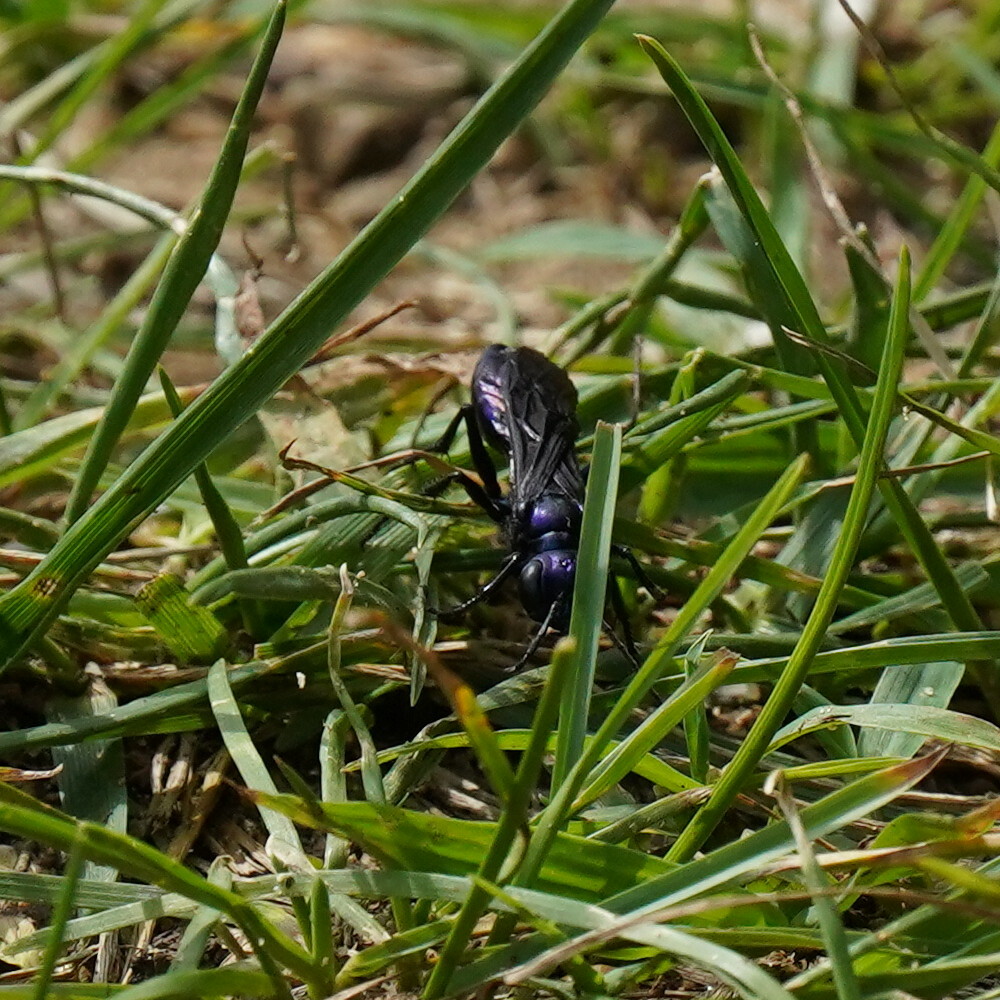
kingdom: Animalia
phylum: Arthropoda
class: Insecta
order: Hymenoptera
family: Sphecidae
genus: Chlorion
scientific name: Chlorion aerarium
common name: Steel-blue cricket hunter
